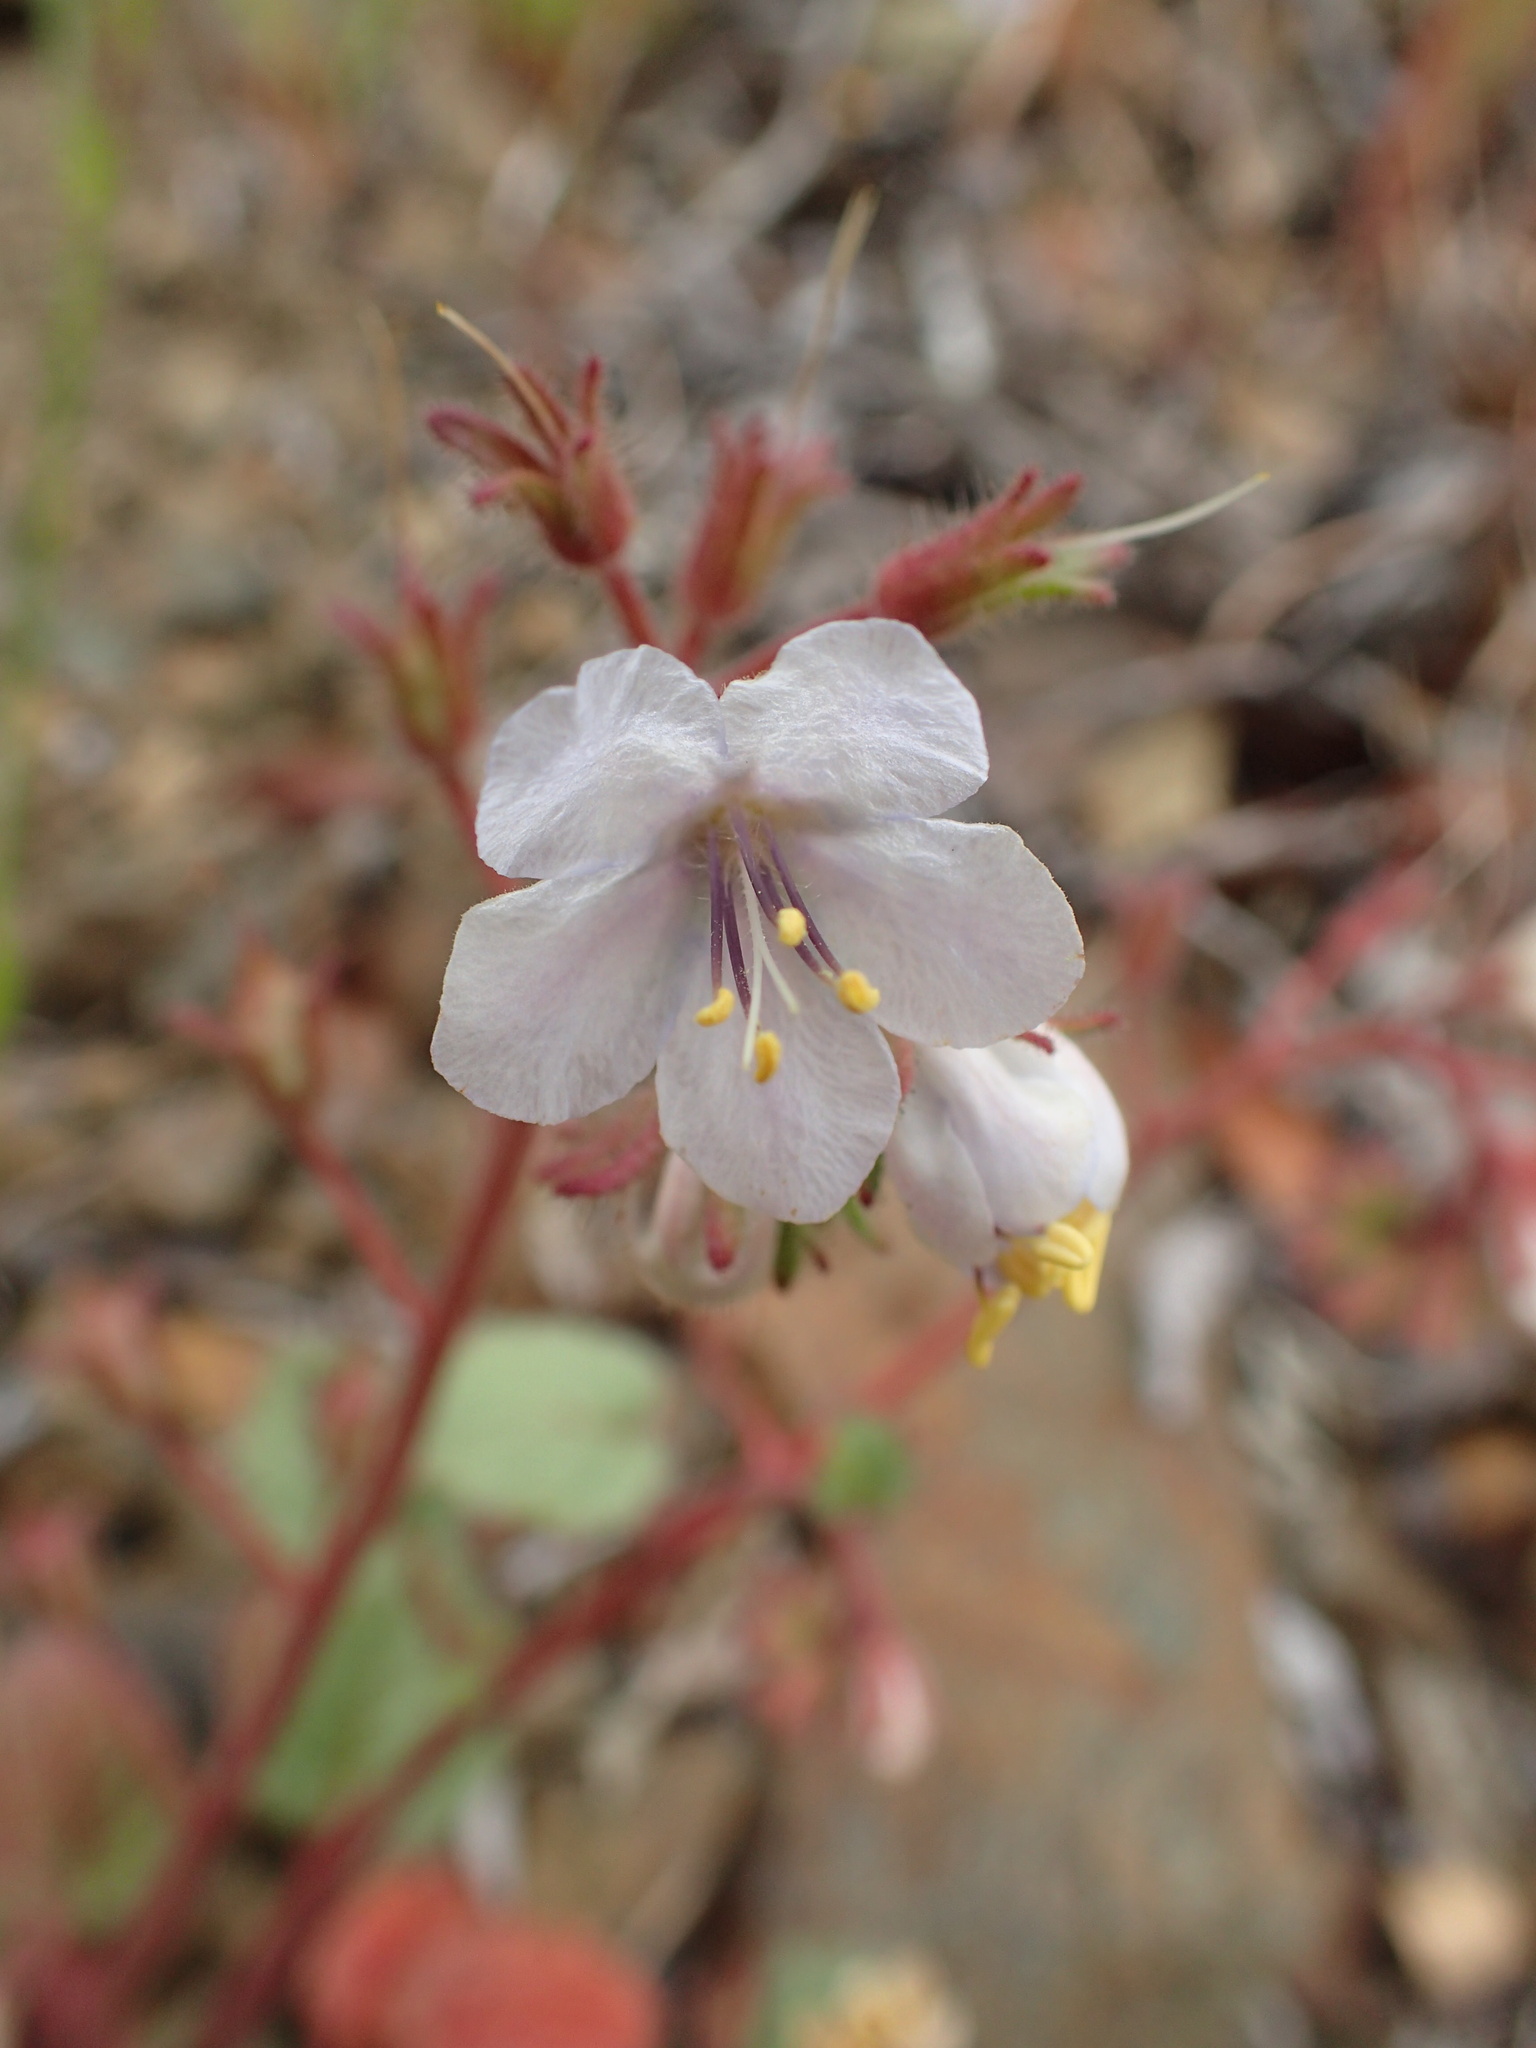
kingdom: Plantae
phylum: Tracheophyta
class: Magnoliopsida
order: Boraginales
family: Hydrophyllaceae
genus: Phacelia
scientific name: Phacelia longipes
